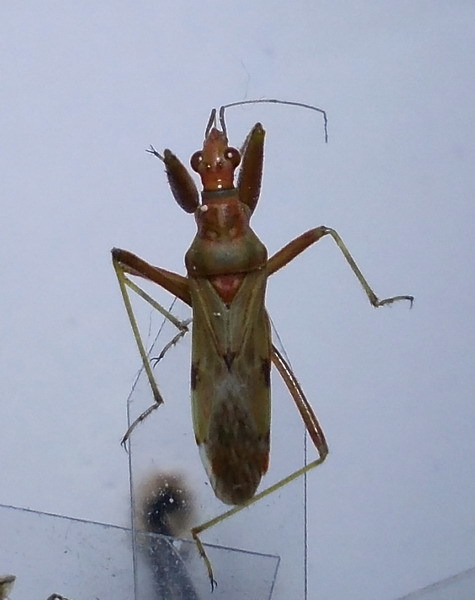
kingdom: Animalia
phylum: Arthropoda
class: Insecta
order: Hemiptera
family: Nabidae
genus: Nabis
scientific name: Nabis pallidus
